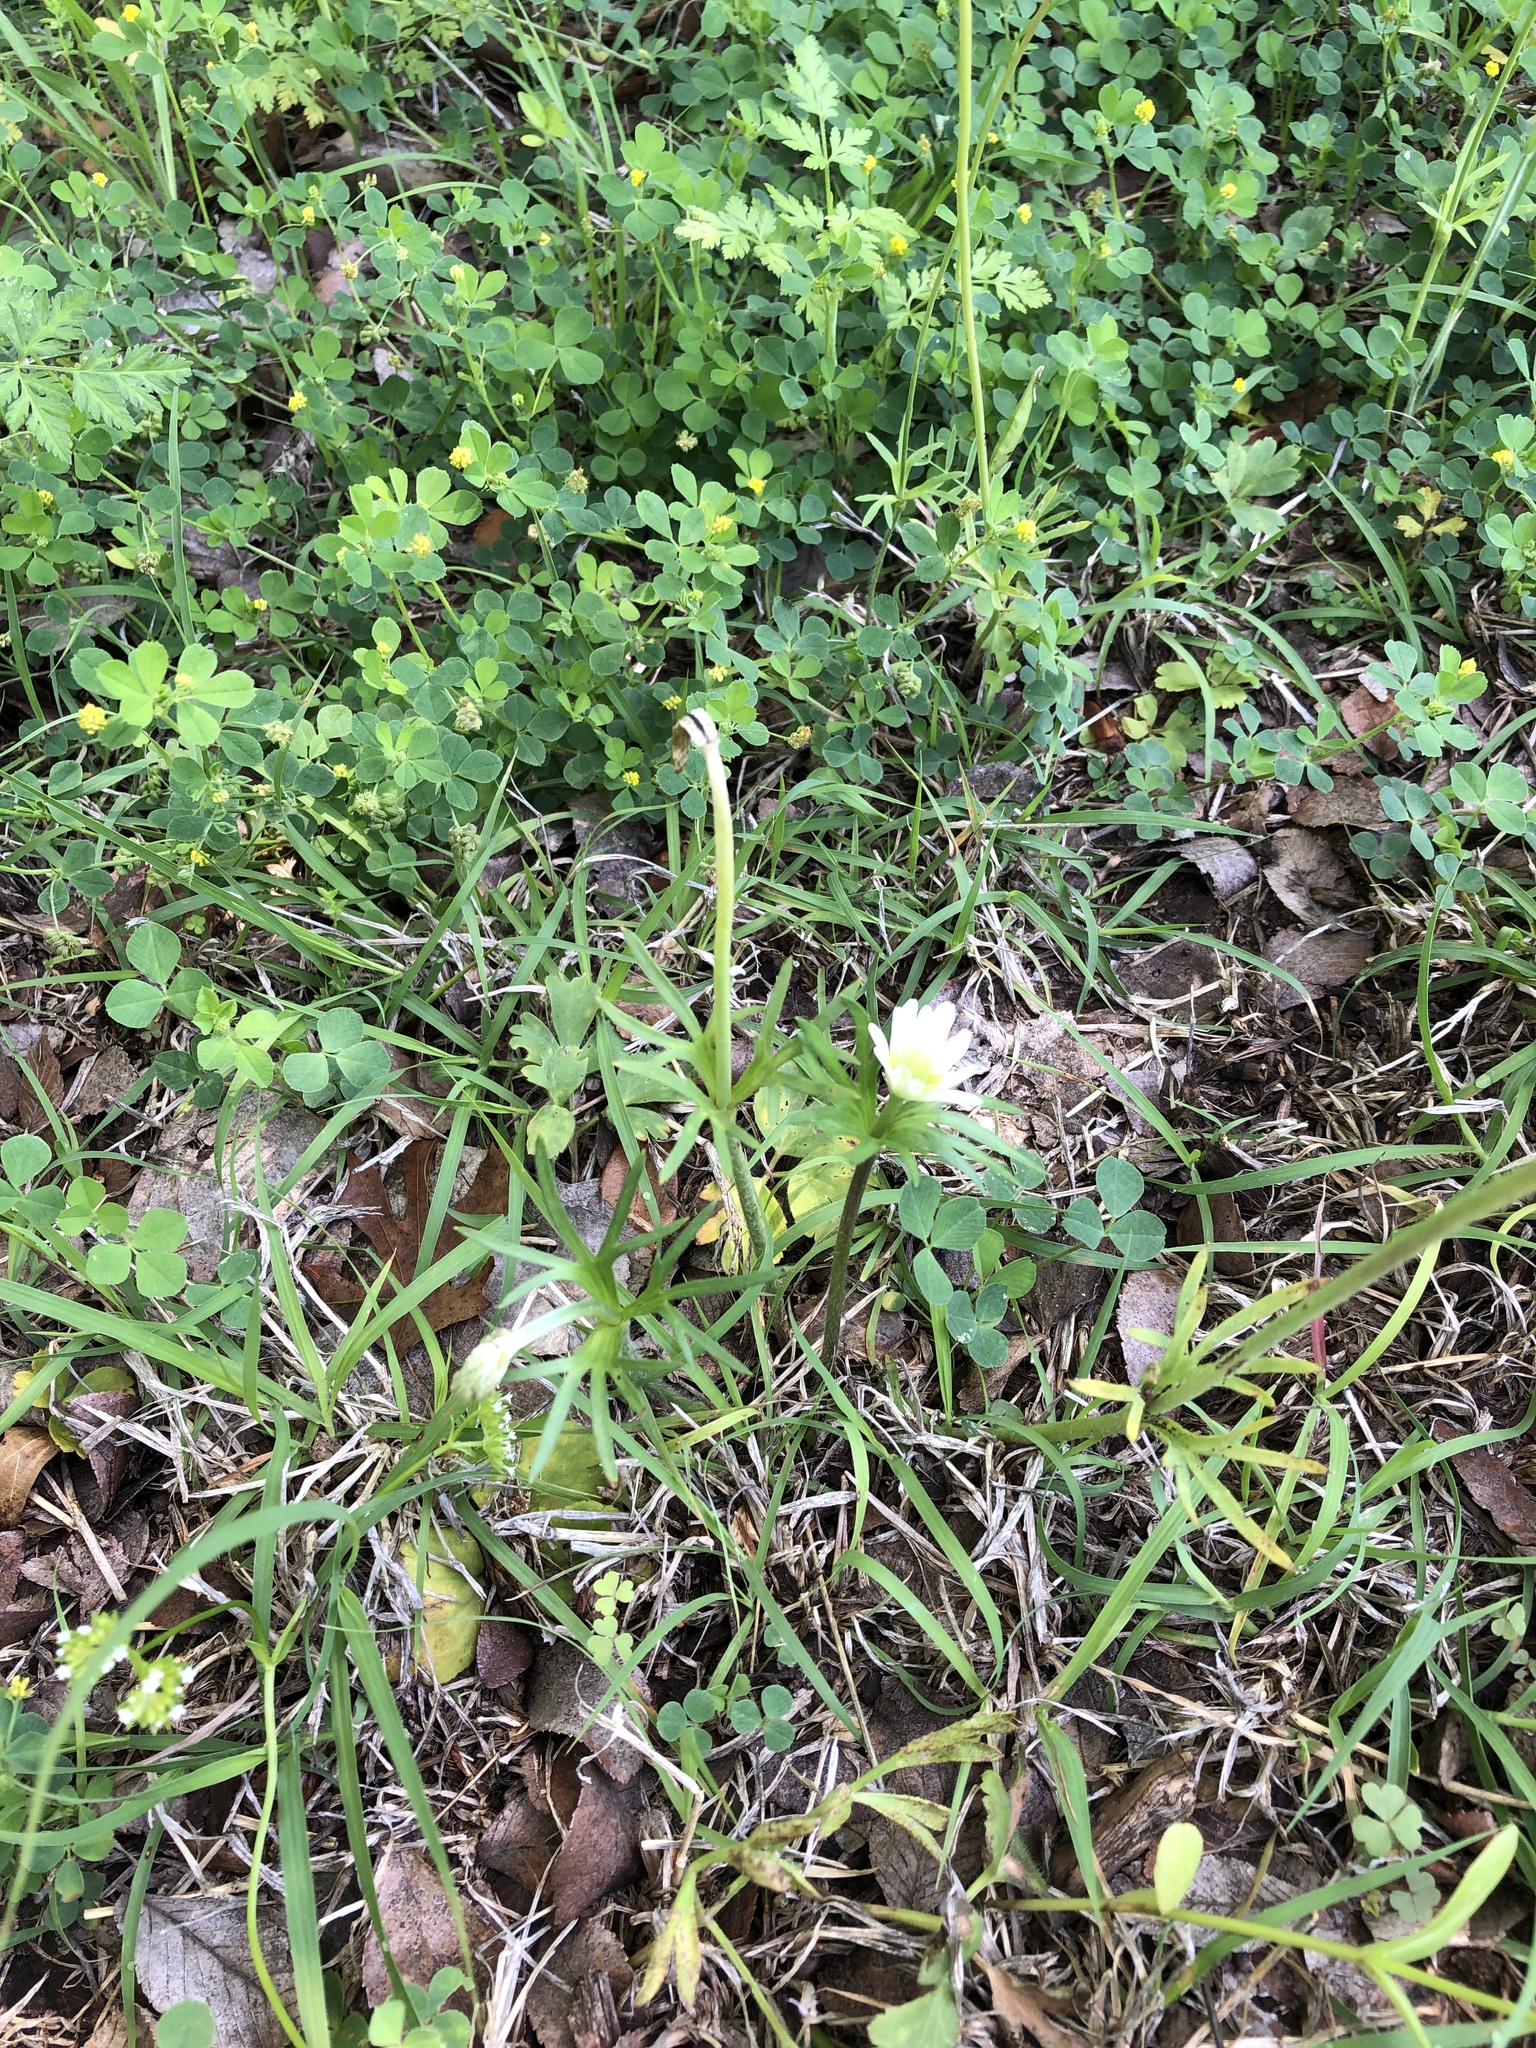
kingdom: Plantae
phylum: Tracheophyta
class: Magnoliopsida
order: Ranunculales
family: Ranunculaceae
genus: Anemone
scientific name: Anemone berlandieri
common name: Ten-petal anemone
